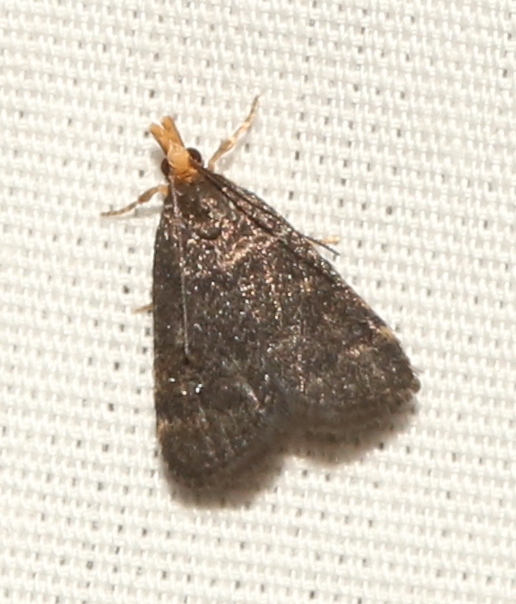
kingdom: Animalia
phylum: Arthropoda
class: Insecta
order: Lepidoptera
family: Crambidae
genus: Pyrausta
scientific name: Pyrausta merrickalis
